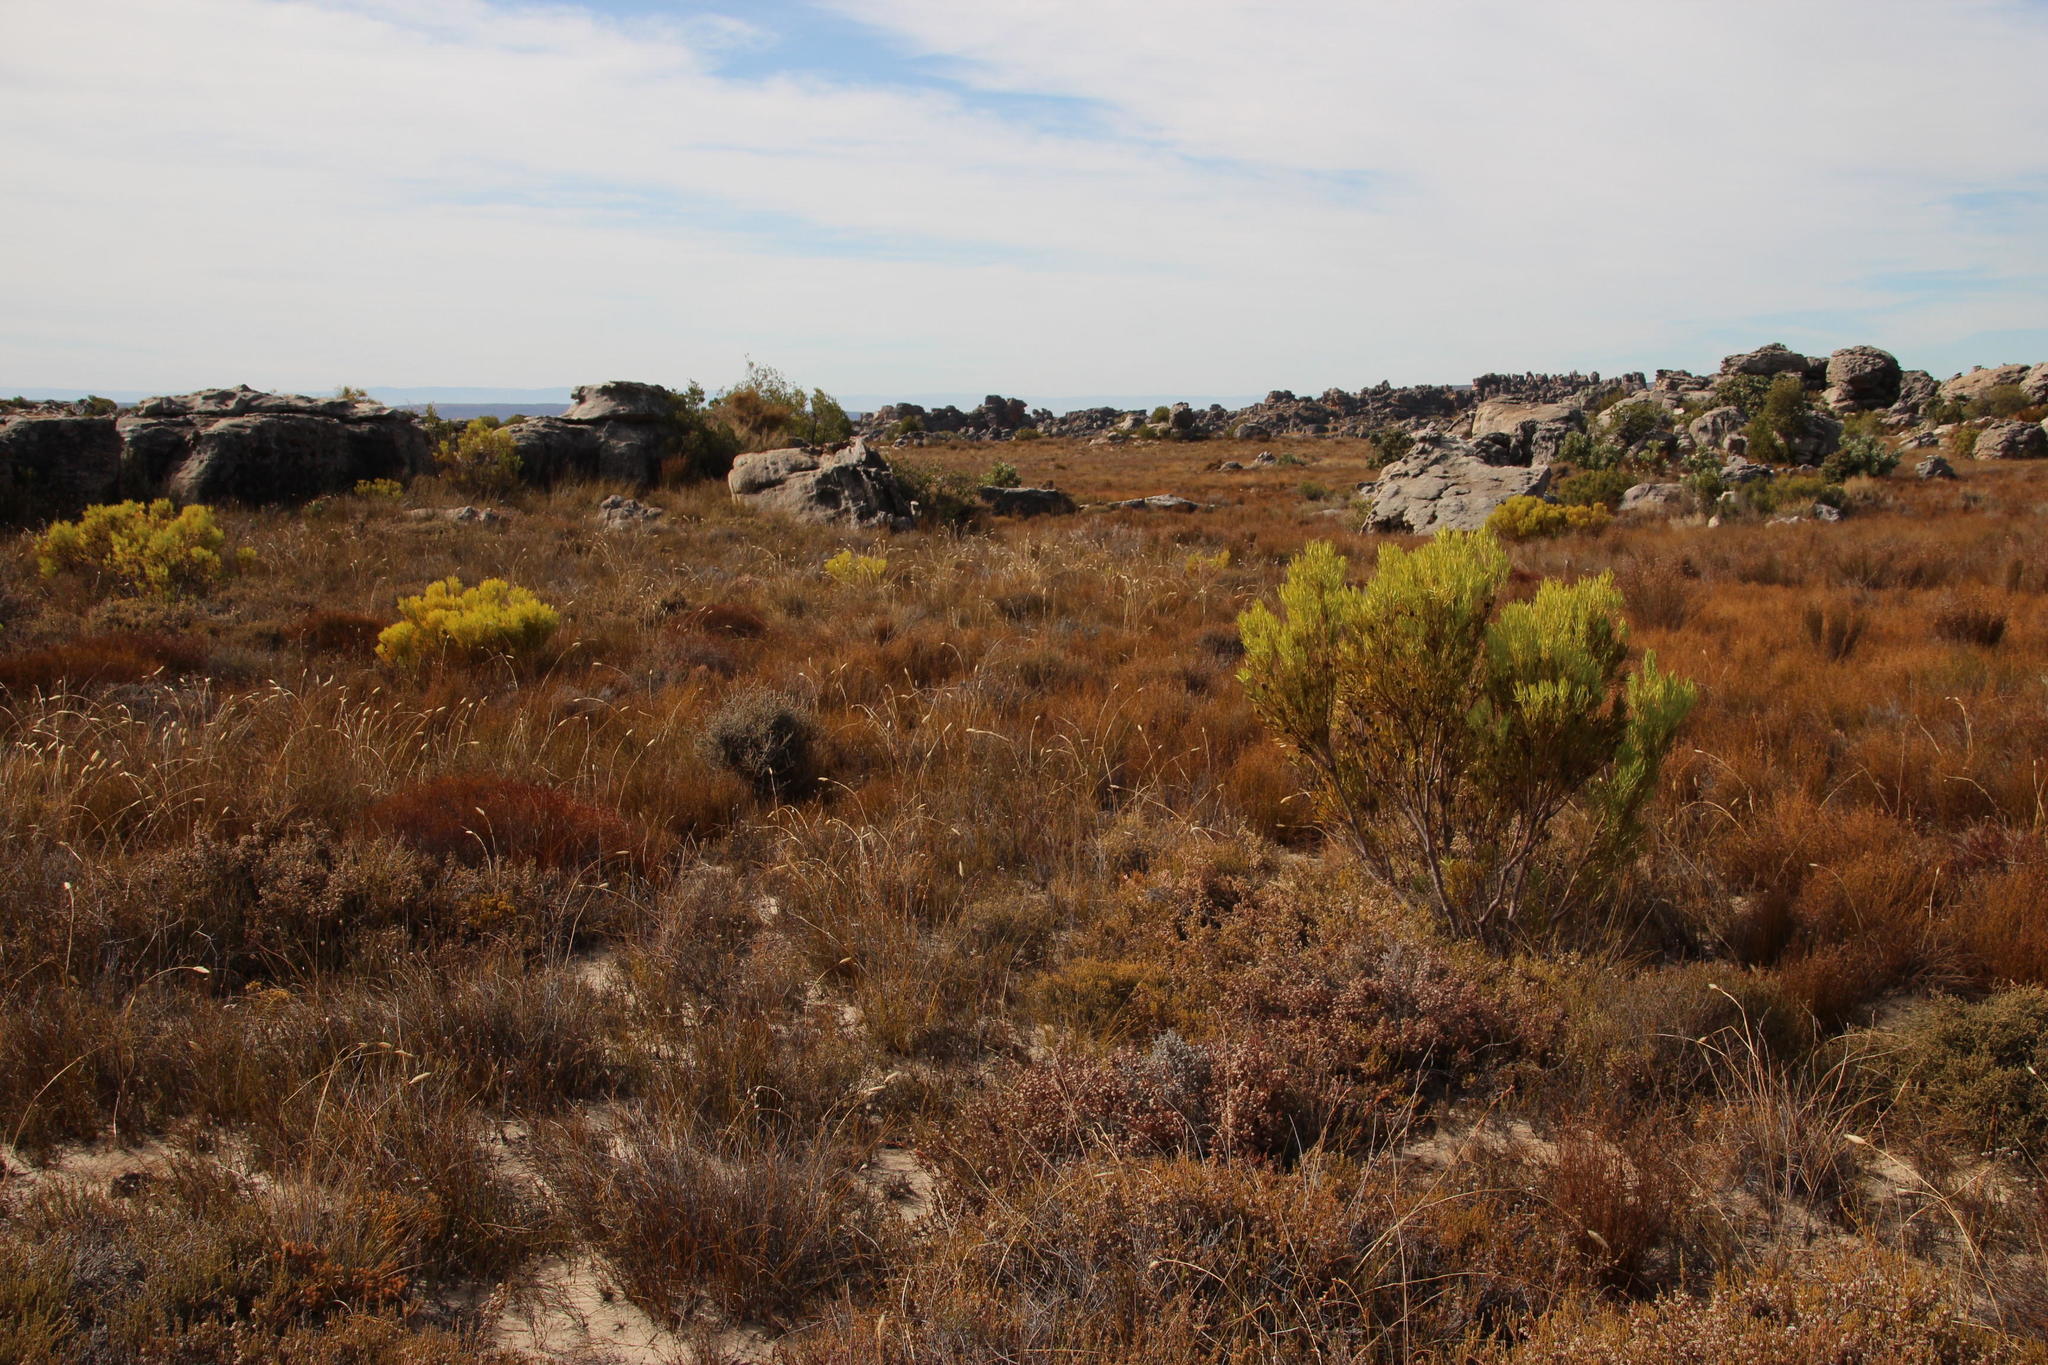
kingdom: Plantae
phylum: Tracheophyta
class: Magnoliopsida
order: Proteales
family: Proteaceae
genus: Leucadendron
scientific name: Leucadendron salignum
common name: Common sunshine conebush
